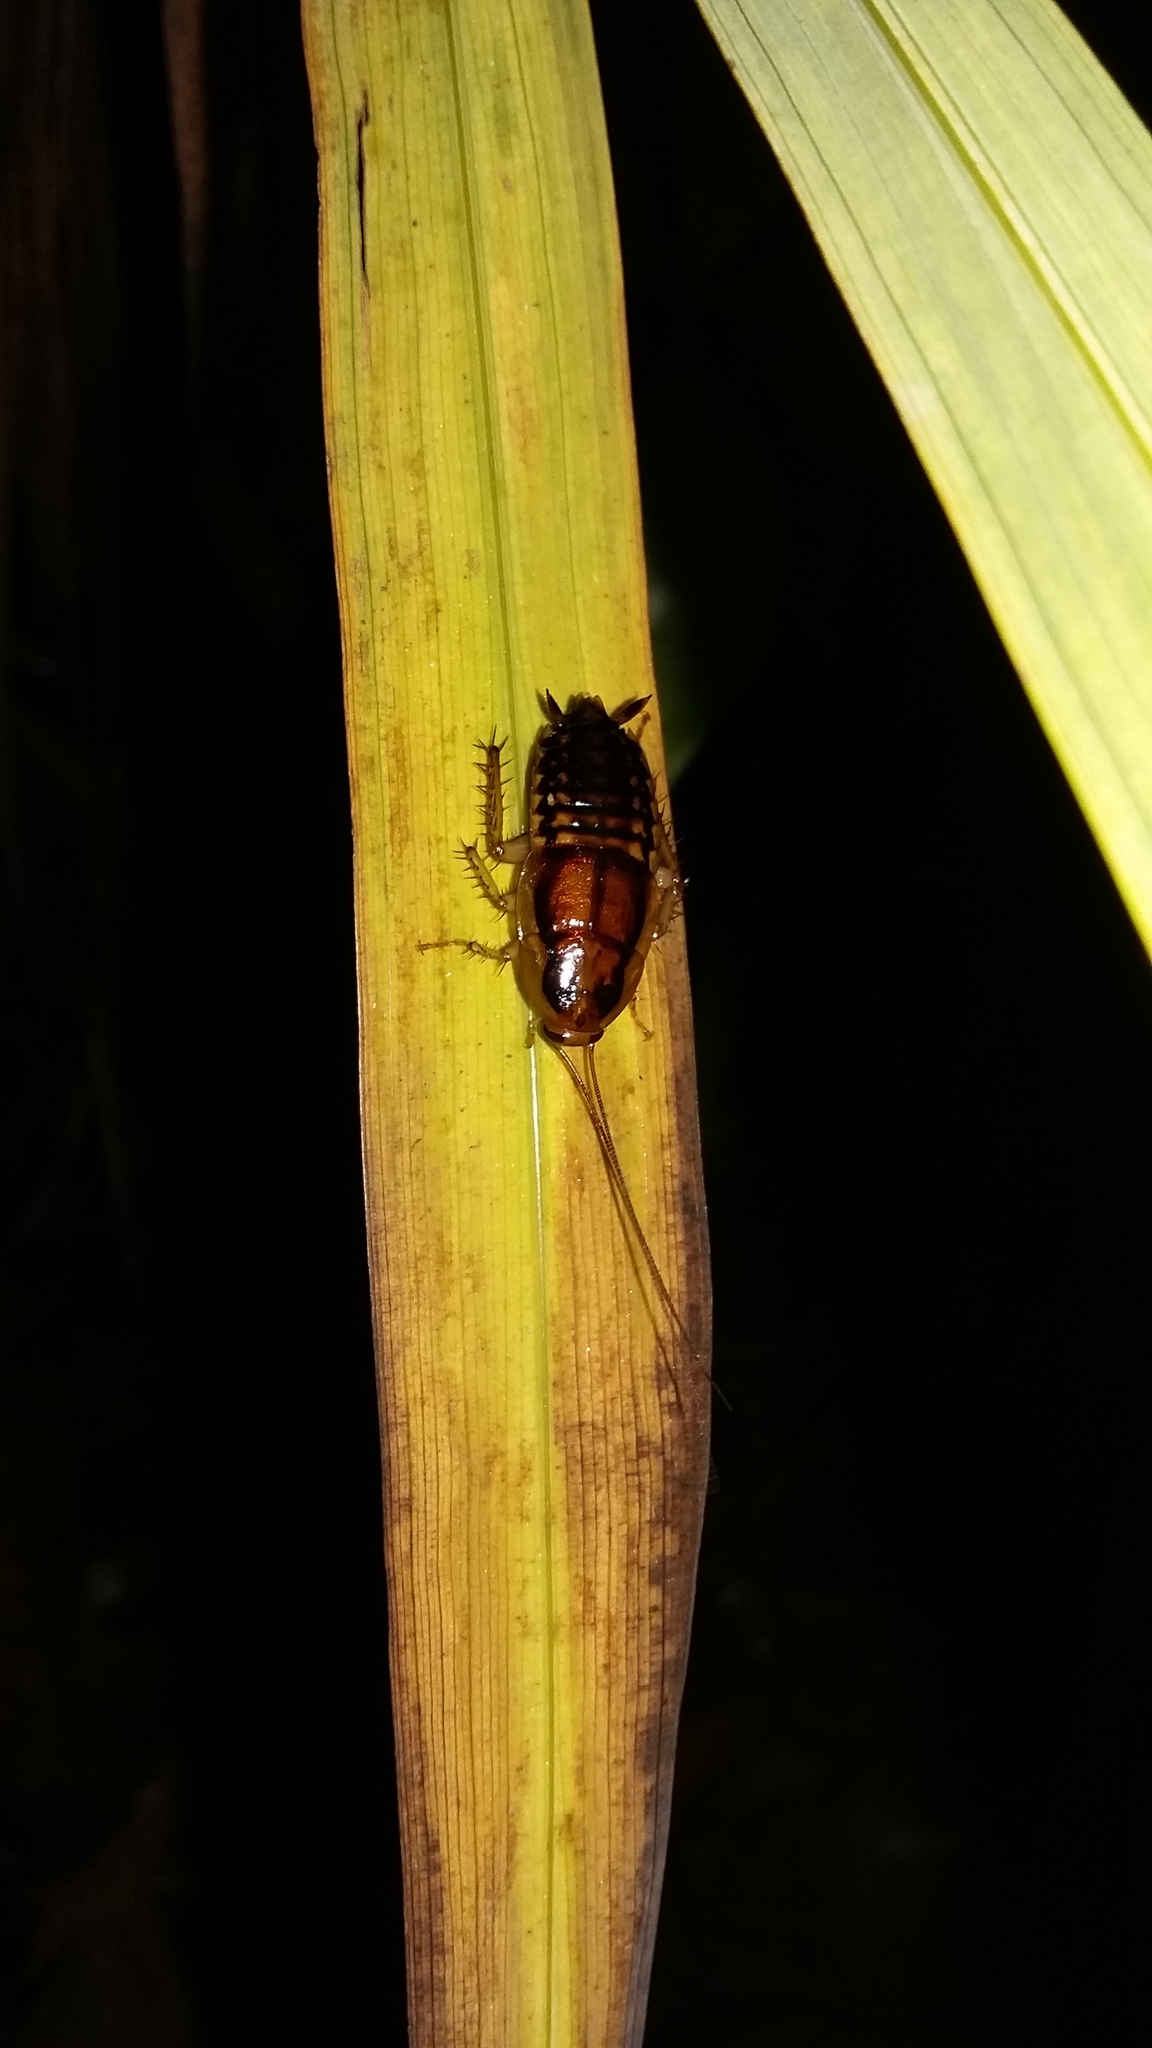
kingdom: Animalia
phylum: Arthropoda
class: Insecta
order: Blattodea
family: Blattidae
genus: Celatoblatta
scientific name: Celatoblatta undulivitta
